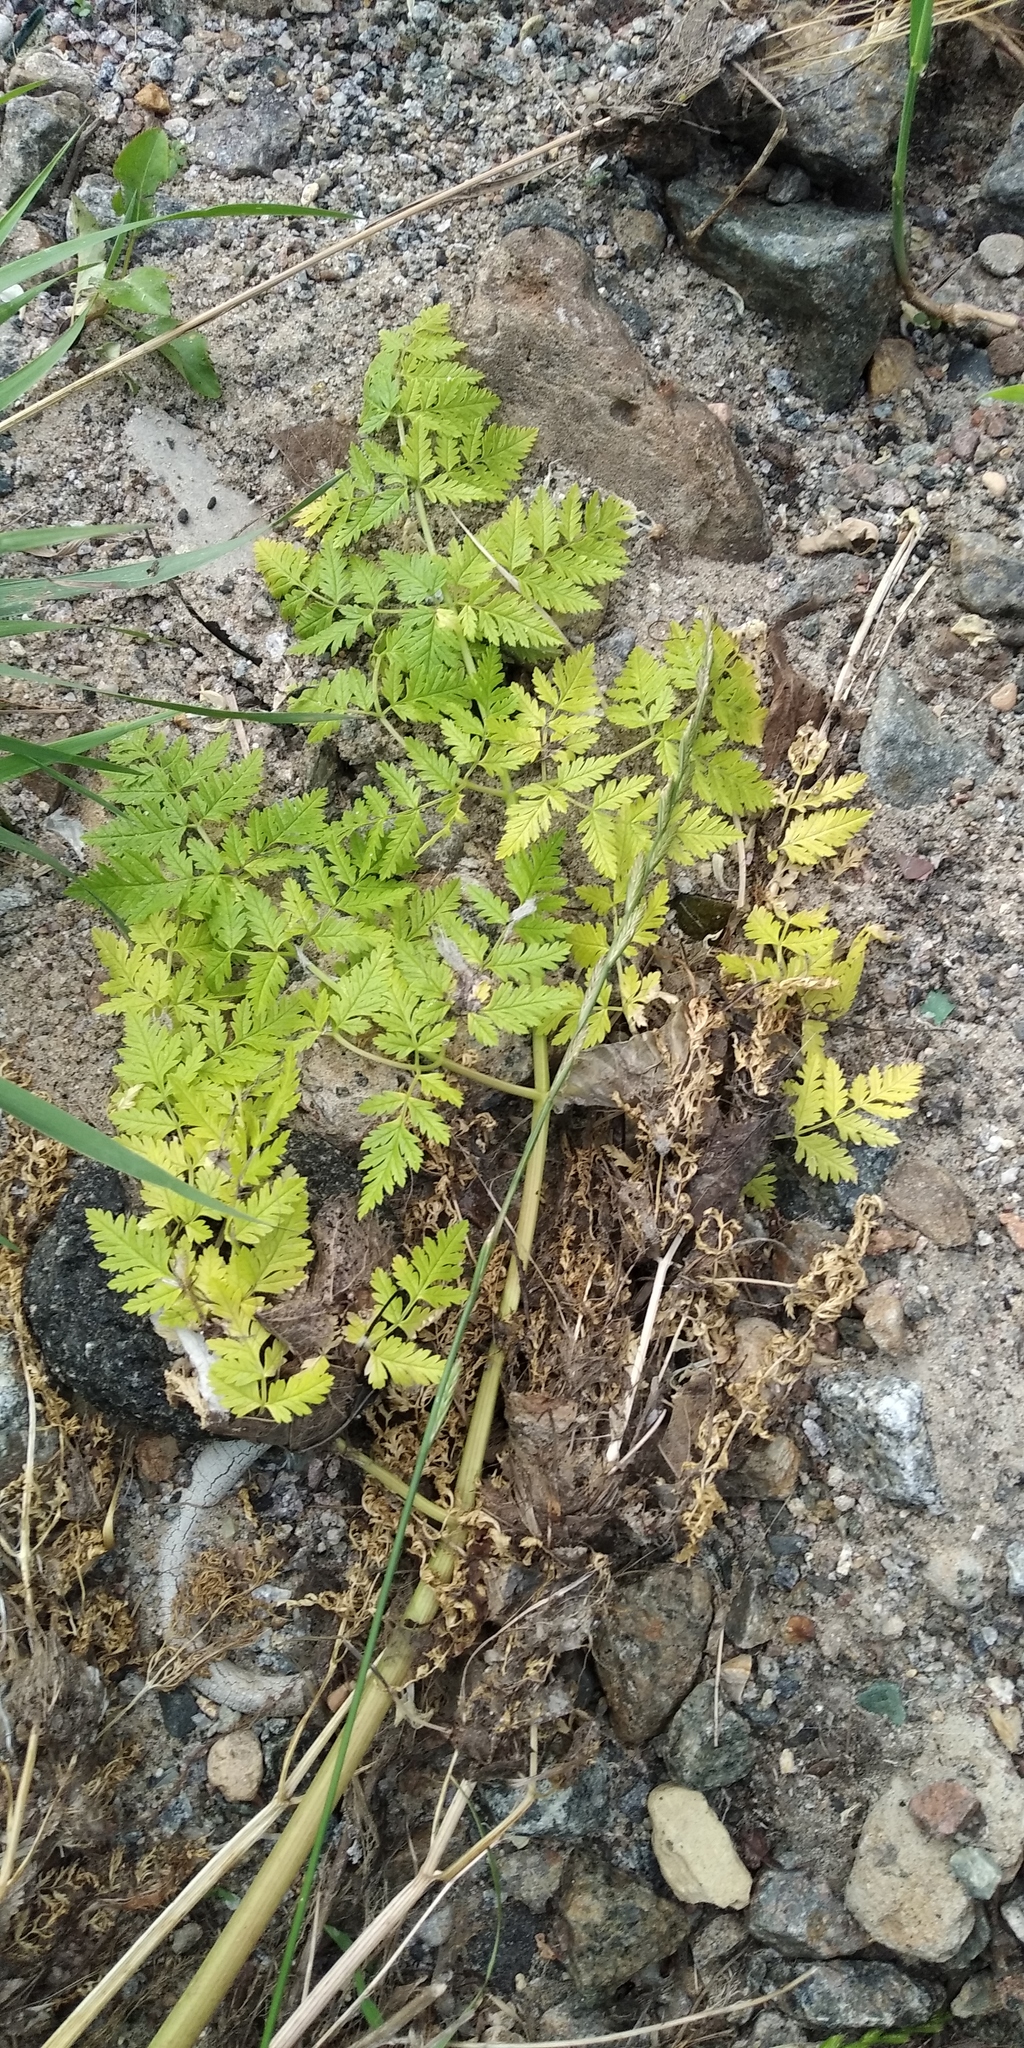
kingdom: Plantae
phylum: Tracheophyta
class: Magnoliopsida
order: Apiales
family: Apiaceae
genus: Chaerophyllum
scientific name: Chaerophyllum temulum
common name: Rough chervil
